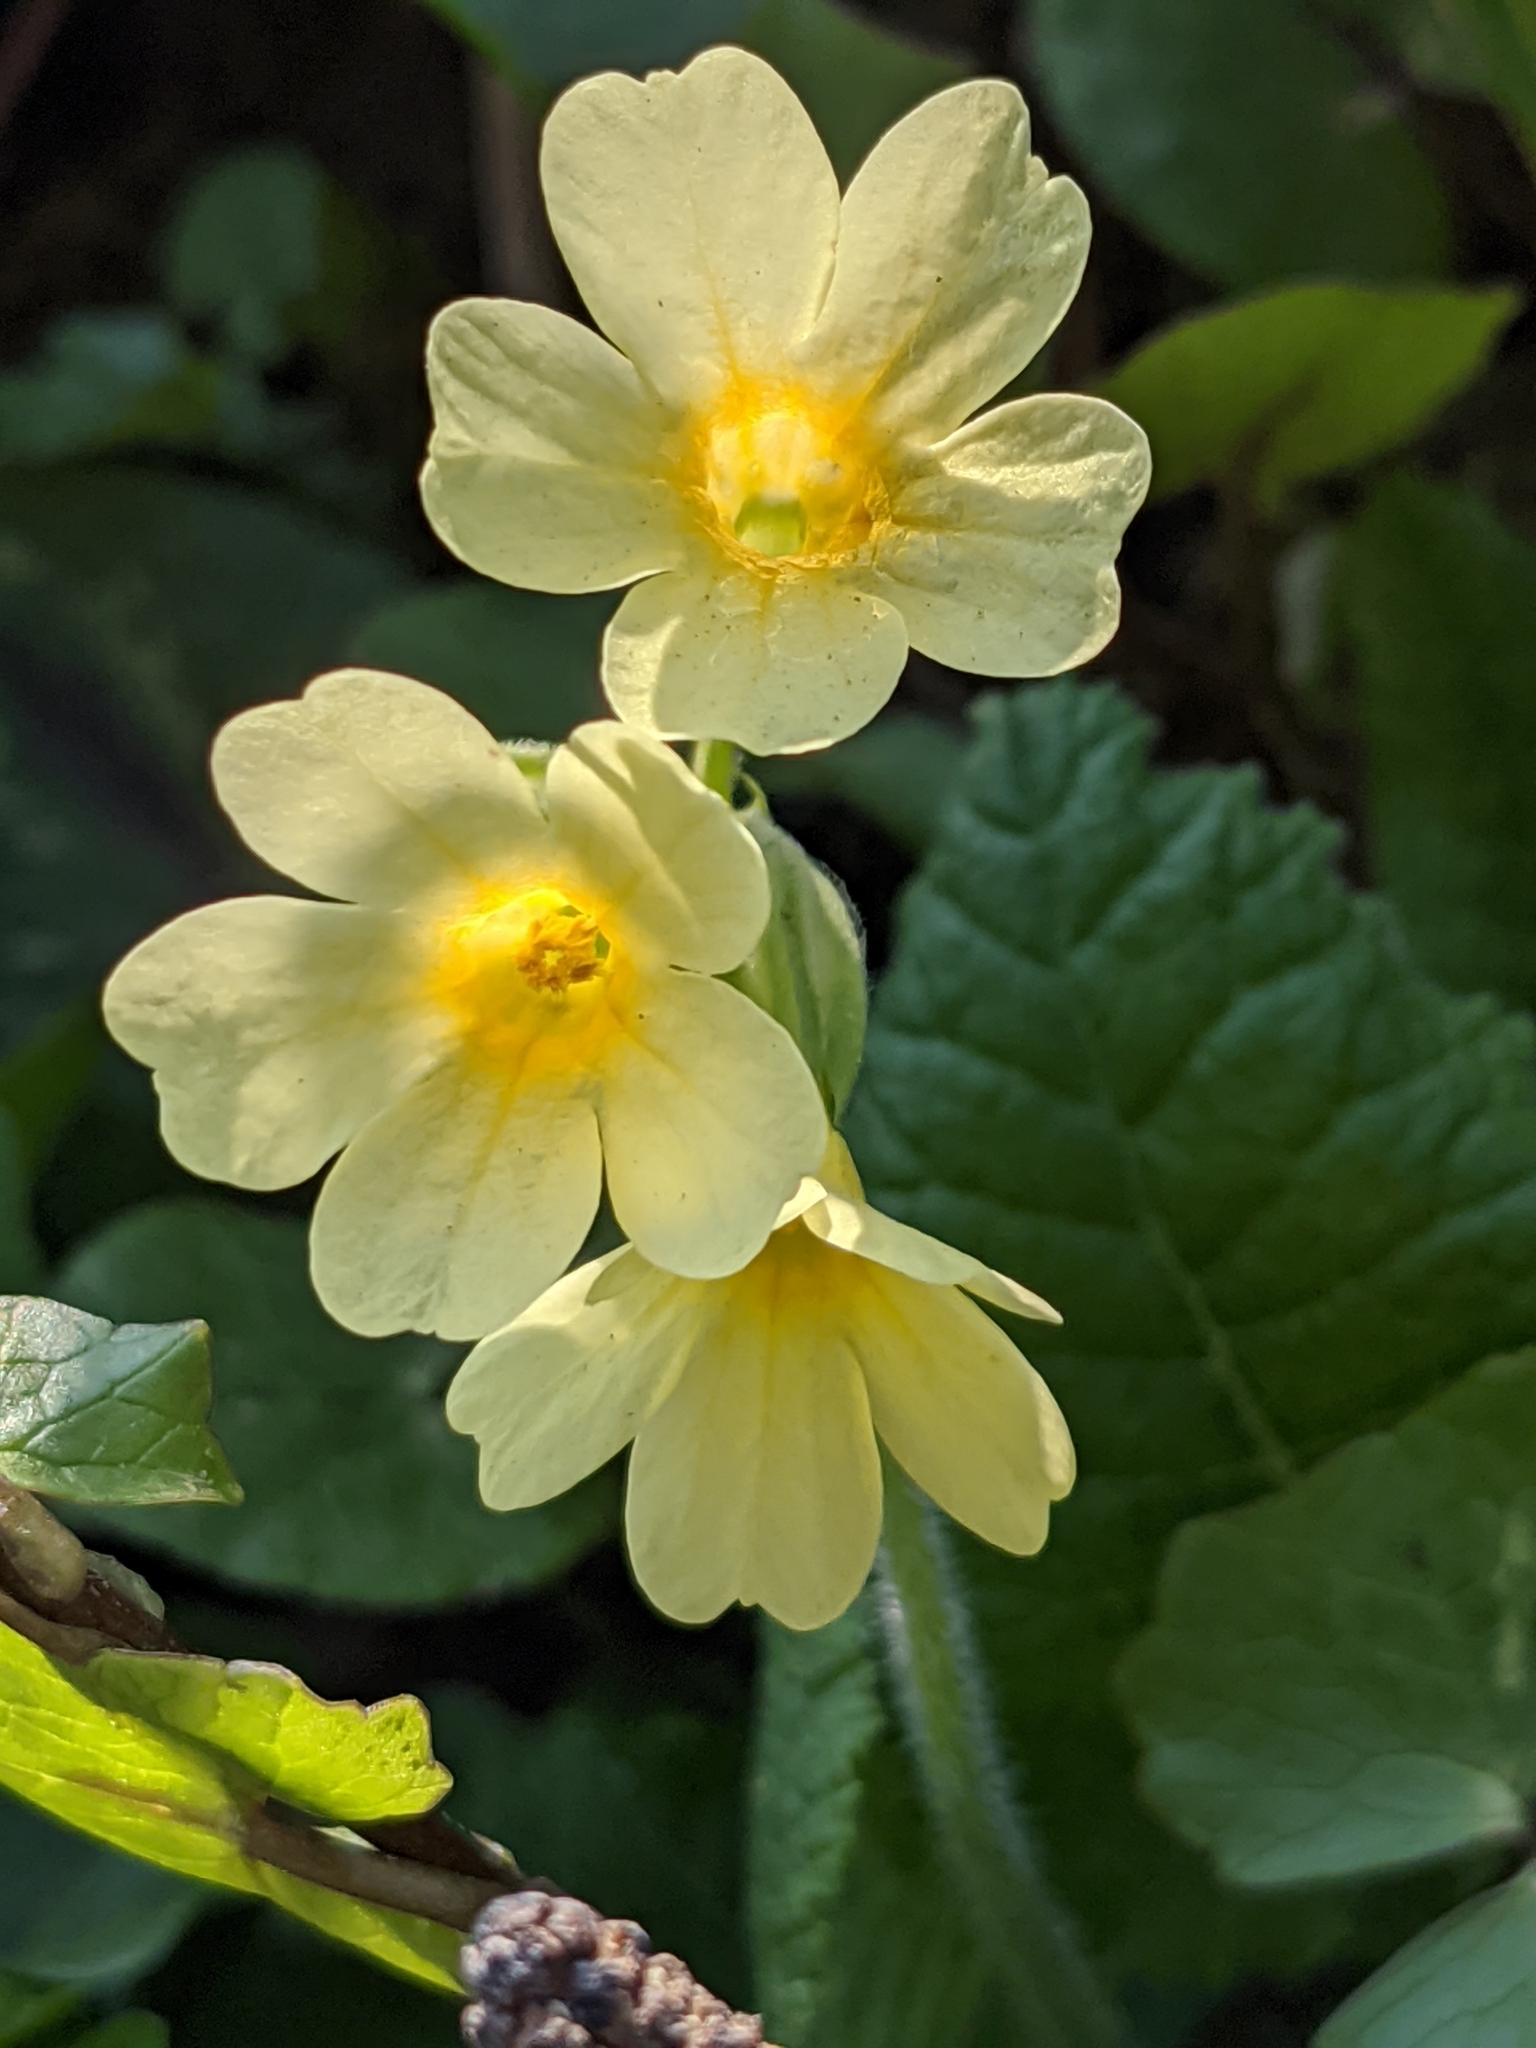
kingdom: Plantae
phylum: Tracheophyta
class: Magnoliopsida
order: Ericales
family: Primulaceae
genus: Primula
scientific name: Primula elatior
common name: Oxlip
